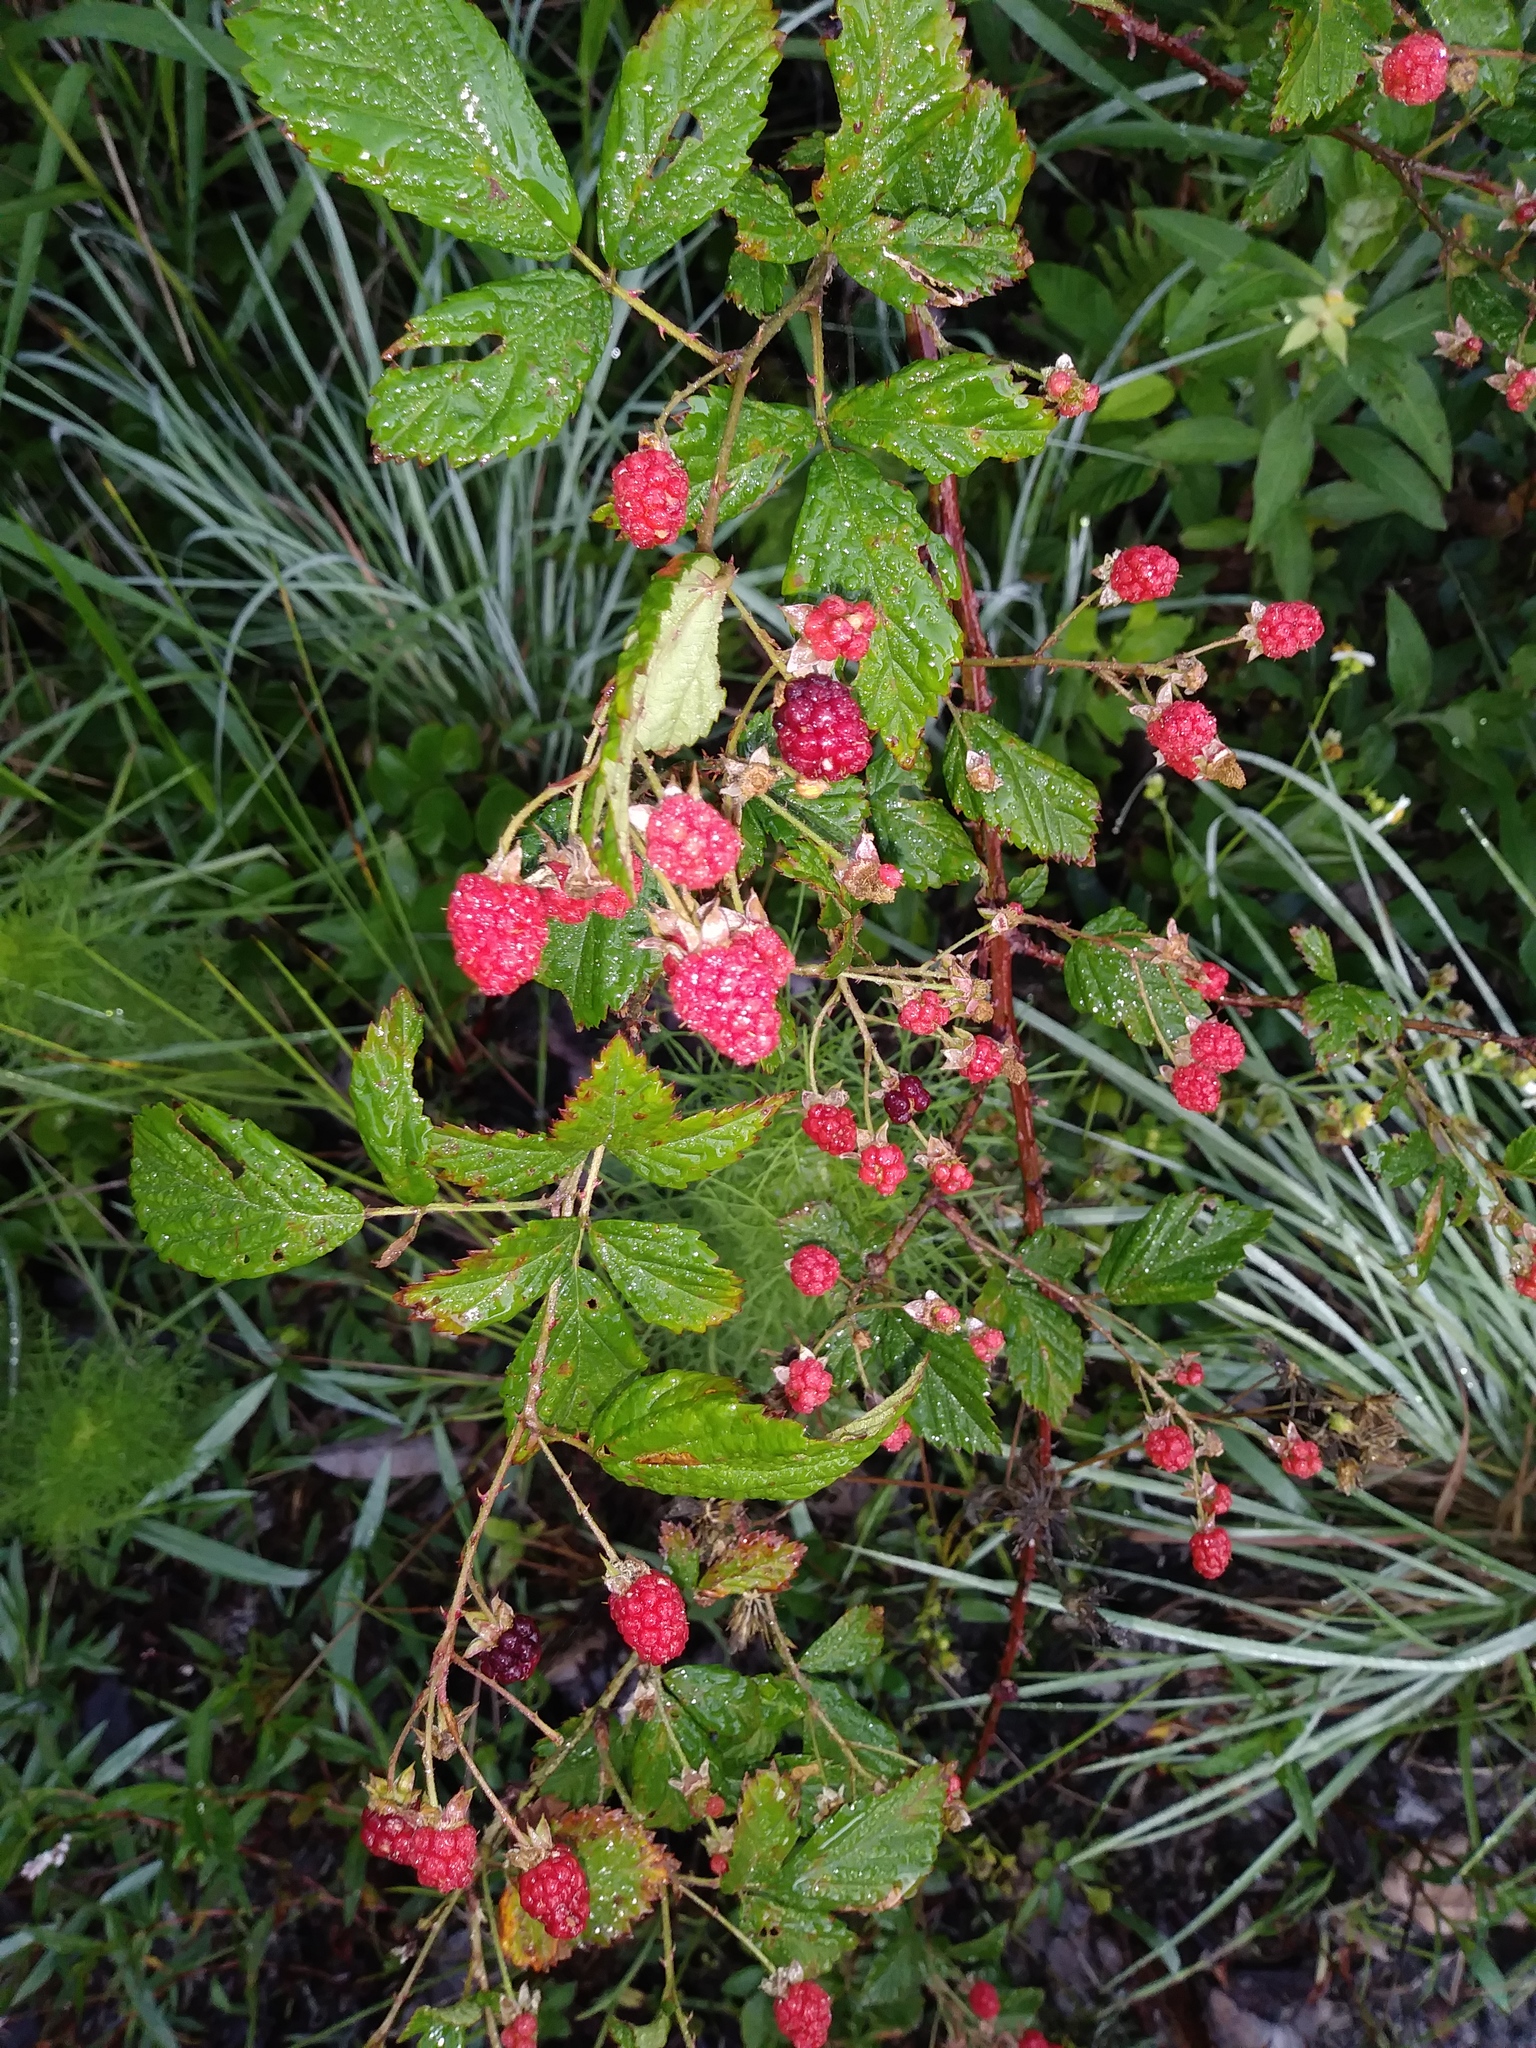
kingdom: Plantae
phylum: Tracheophyta
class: Magnoliopsida
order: Rosales
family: Rosaceae
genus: Rubus
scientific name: Rubus pensilvanicus
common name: Pennsylvania blackberry
